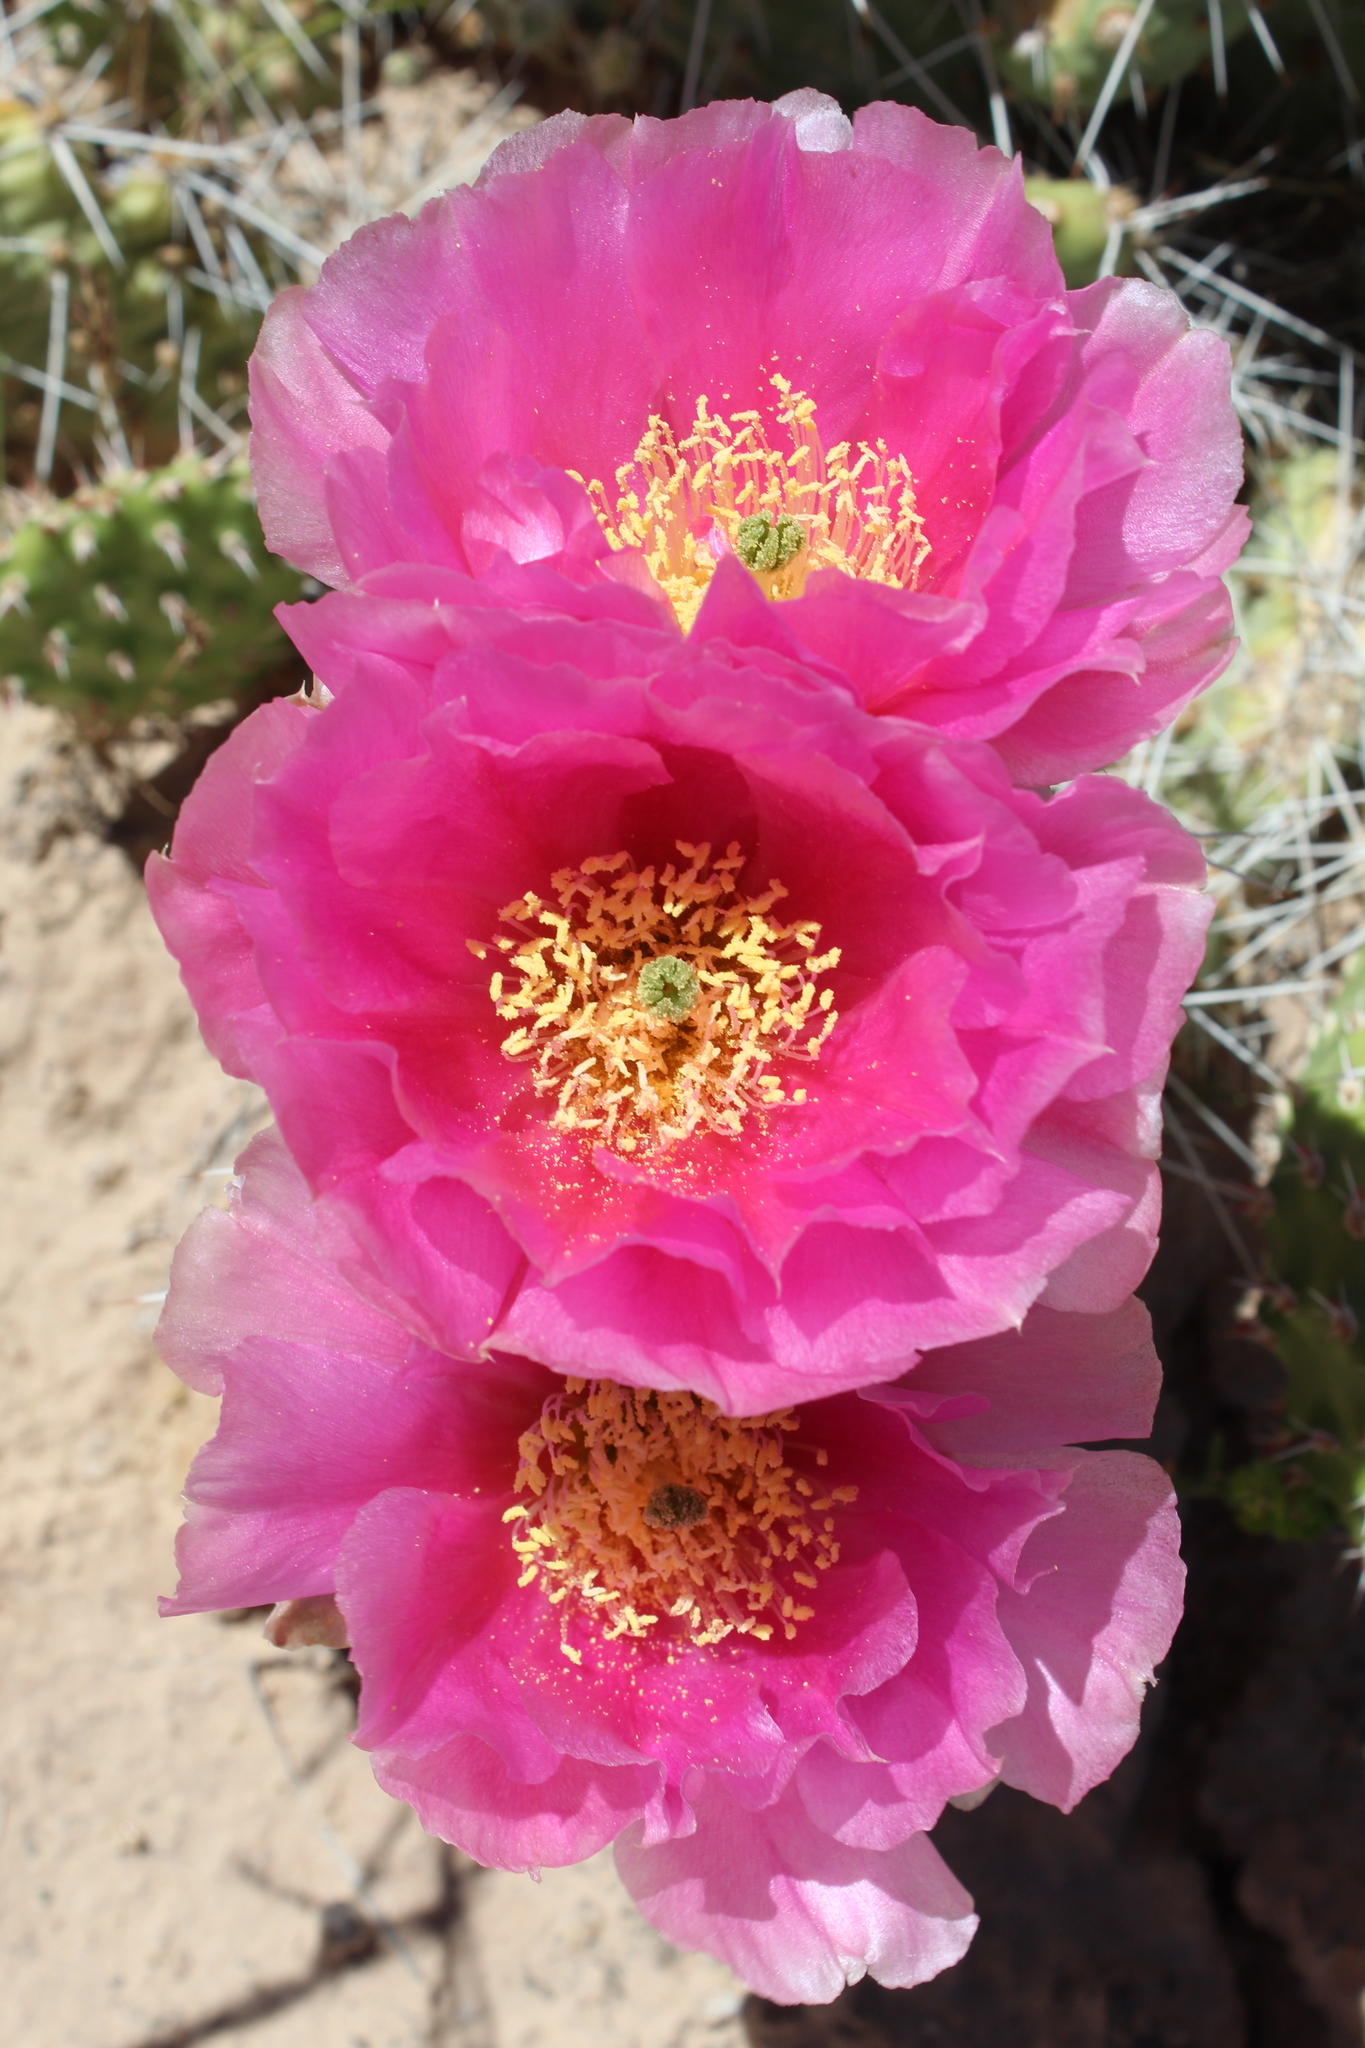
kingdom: Plantae
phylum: Tracheophyta
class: Magnoliopsida
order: Caryophyllales
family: Cactaceae
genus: Opuntia
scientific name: Opuntia polyacantha
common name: Plains prickly-pear
